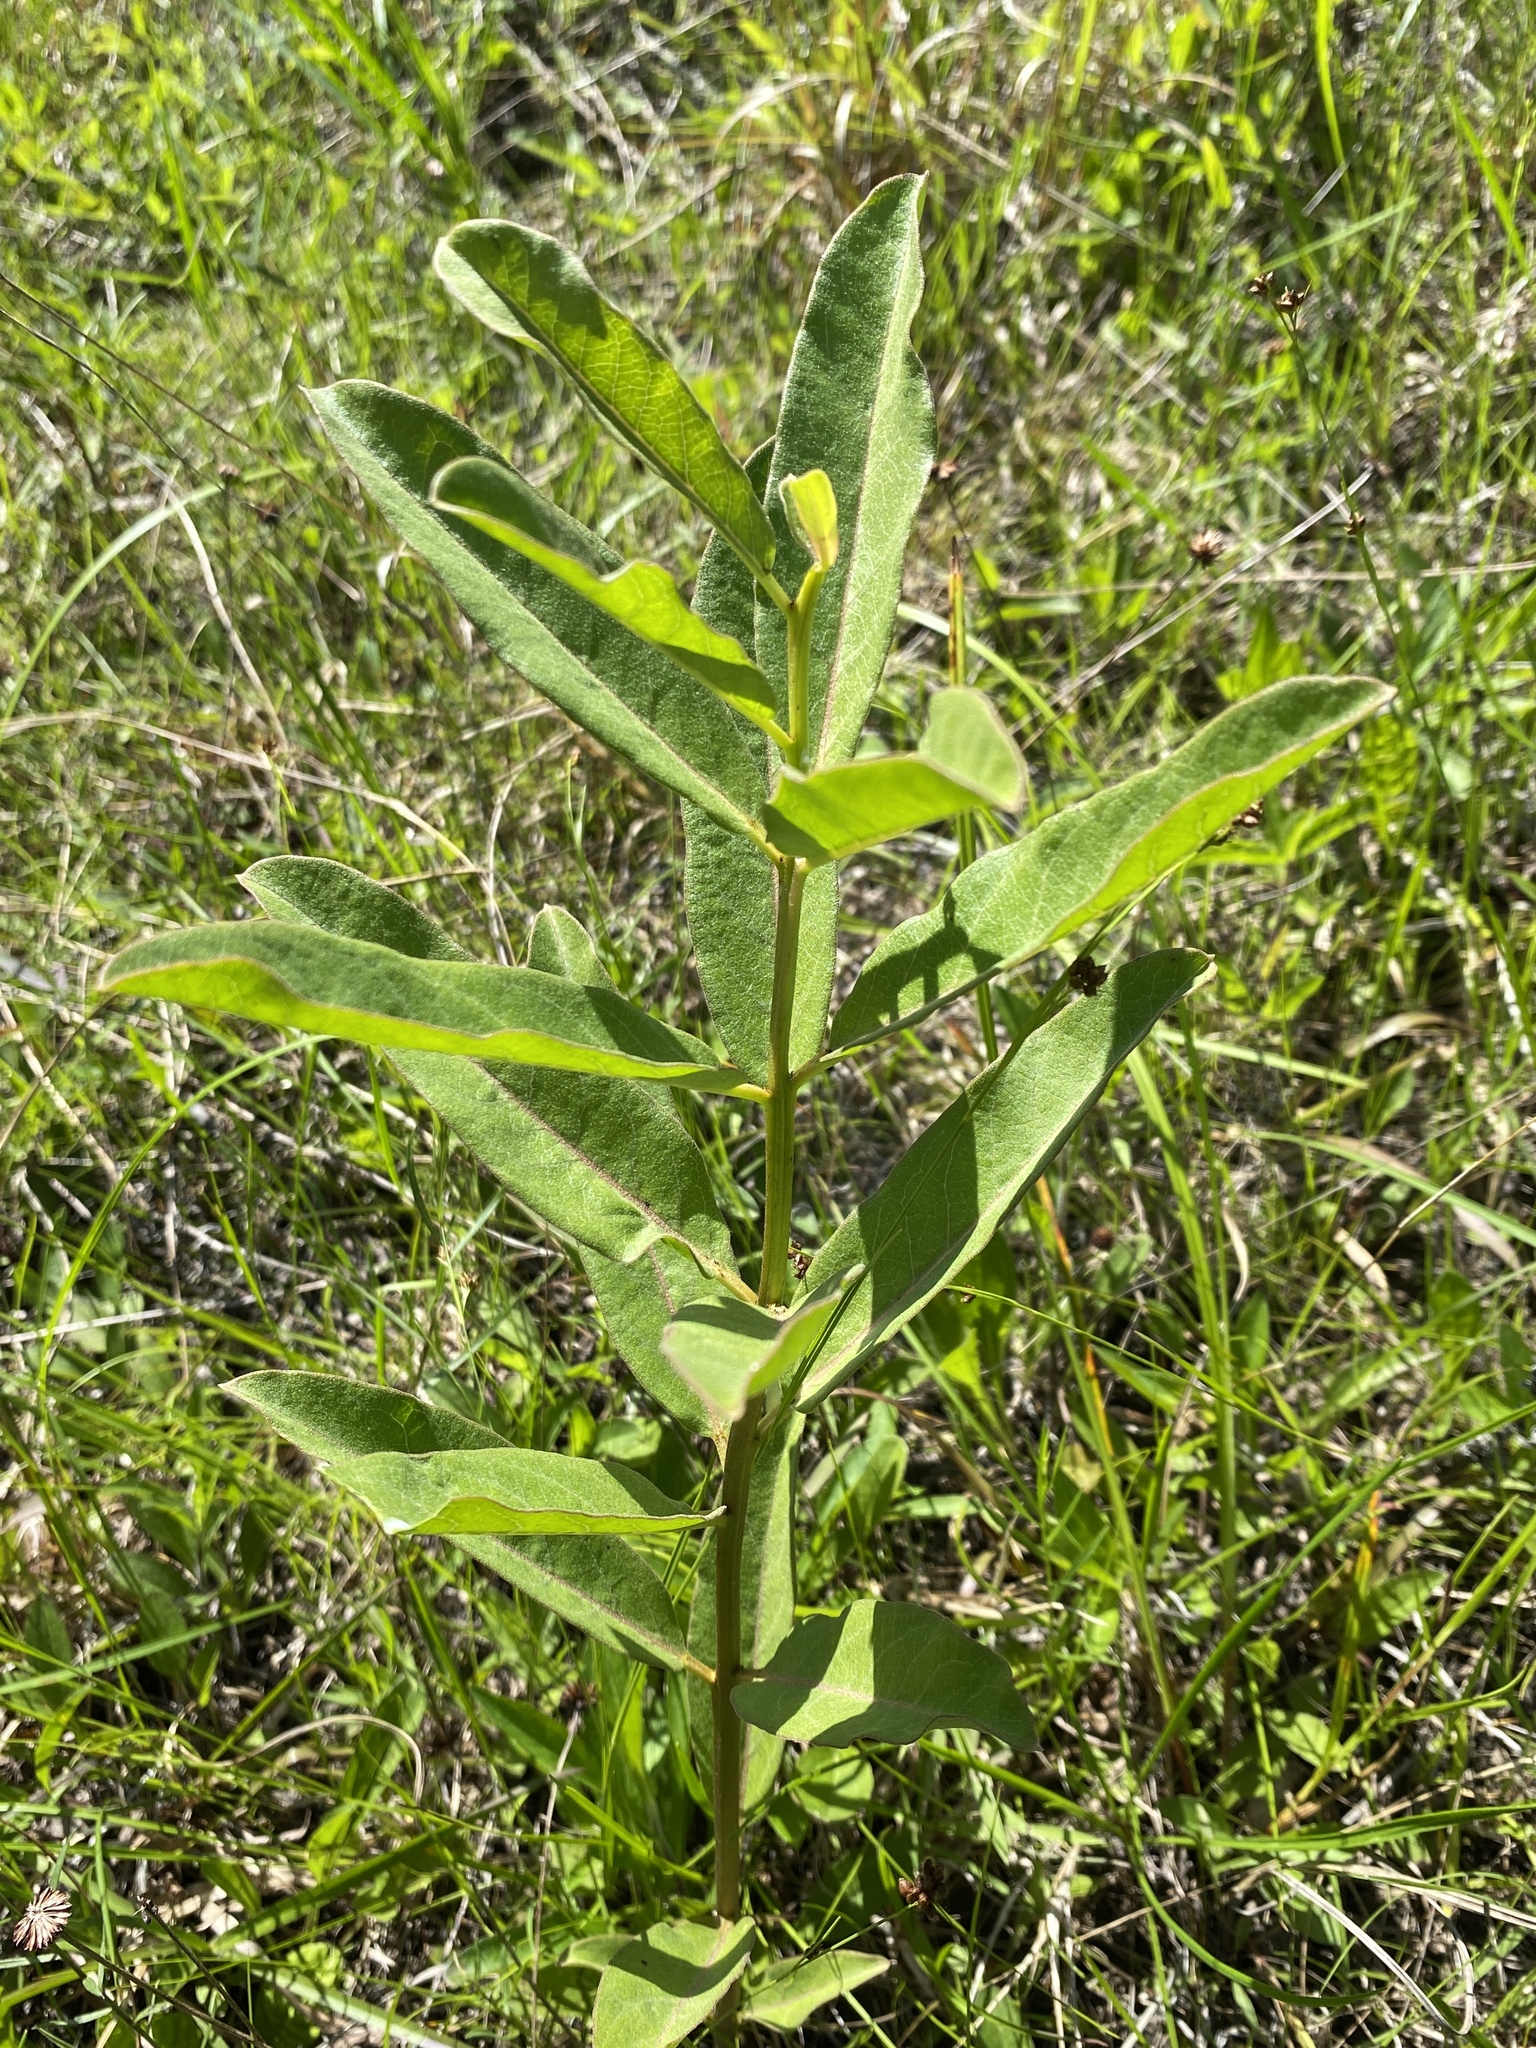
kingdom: Plantae
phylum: Tracheophyta
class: Magnoliopsida
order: Gentianales
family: Apocynaceae
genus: Asclepias
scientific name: Asclepias viridis
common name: Antelope-horns
